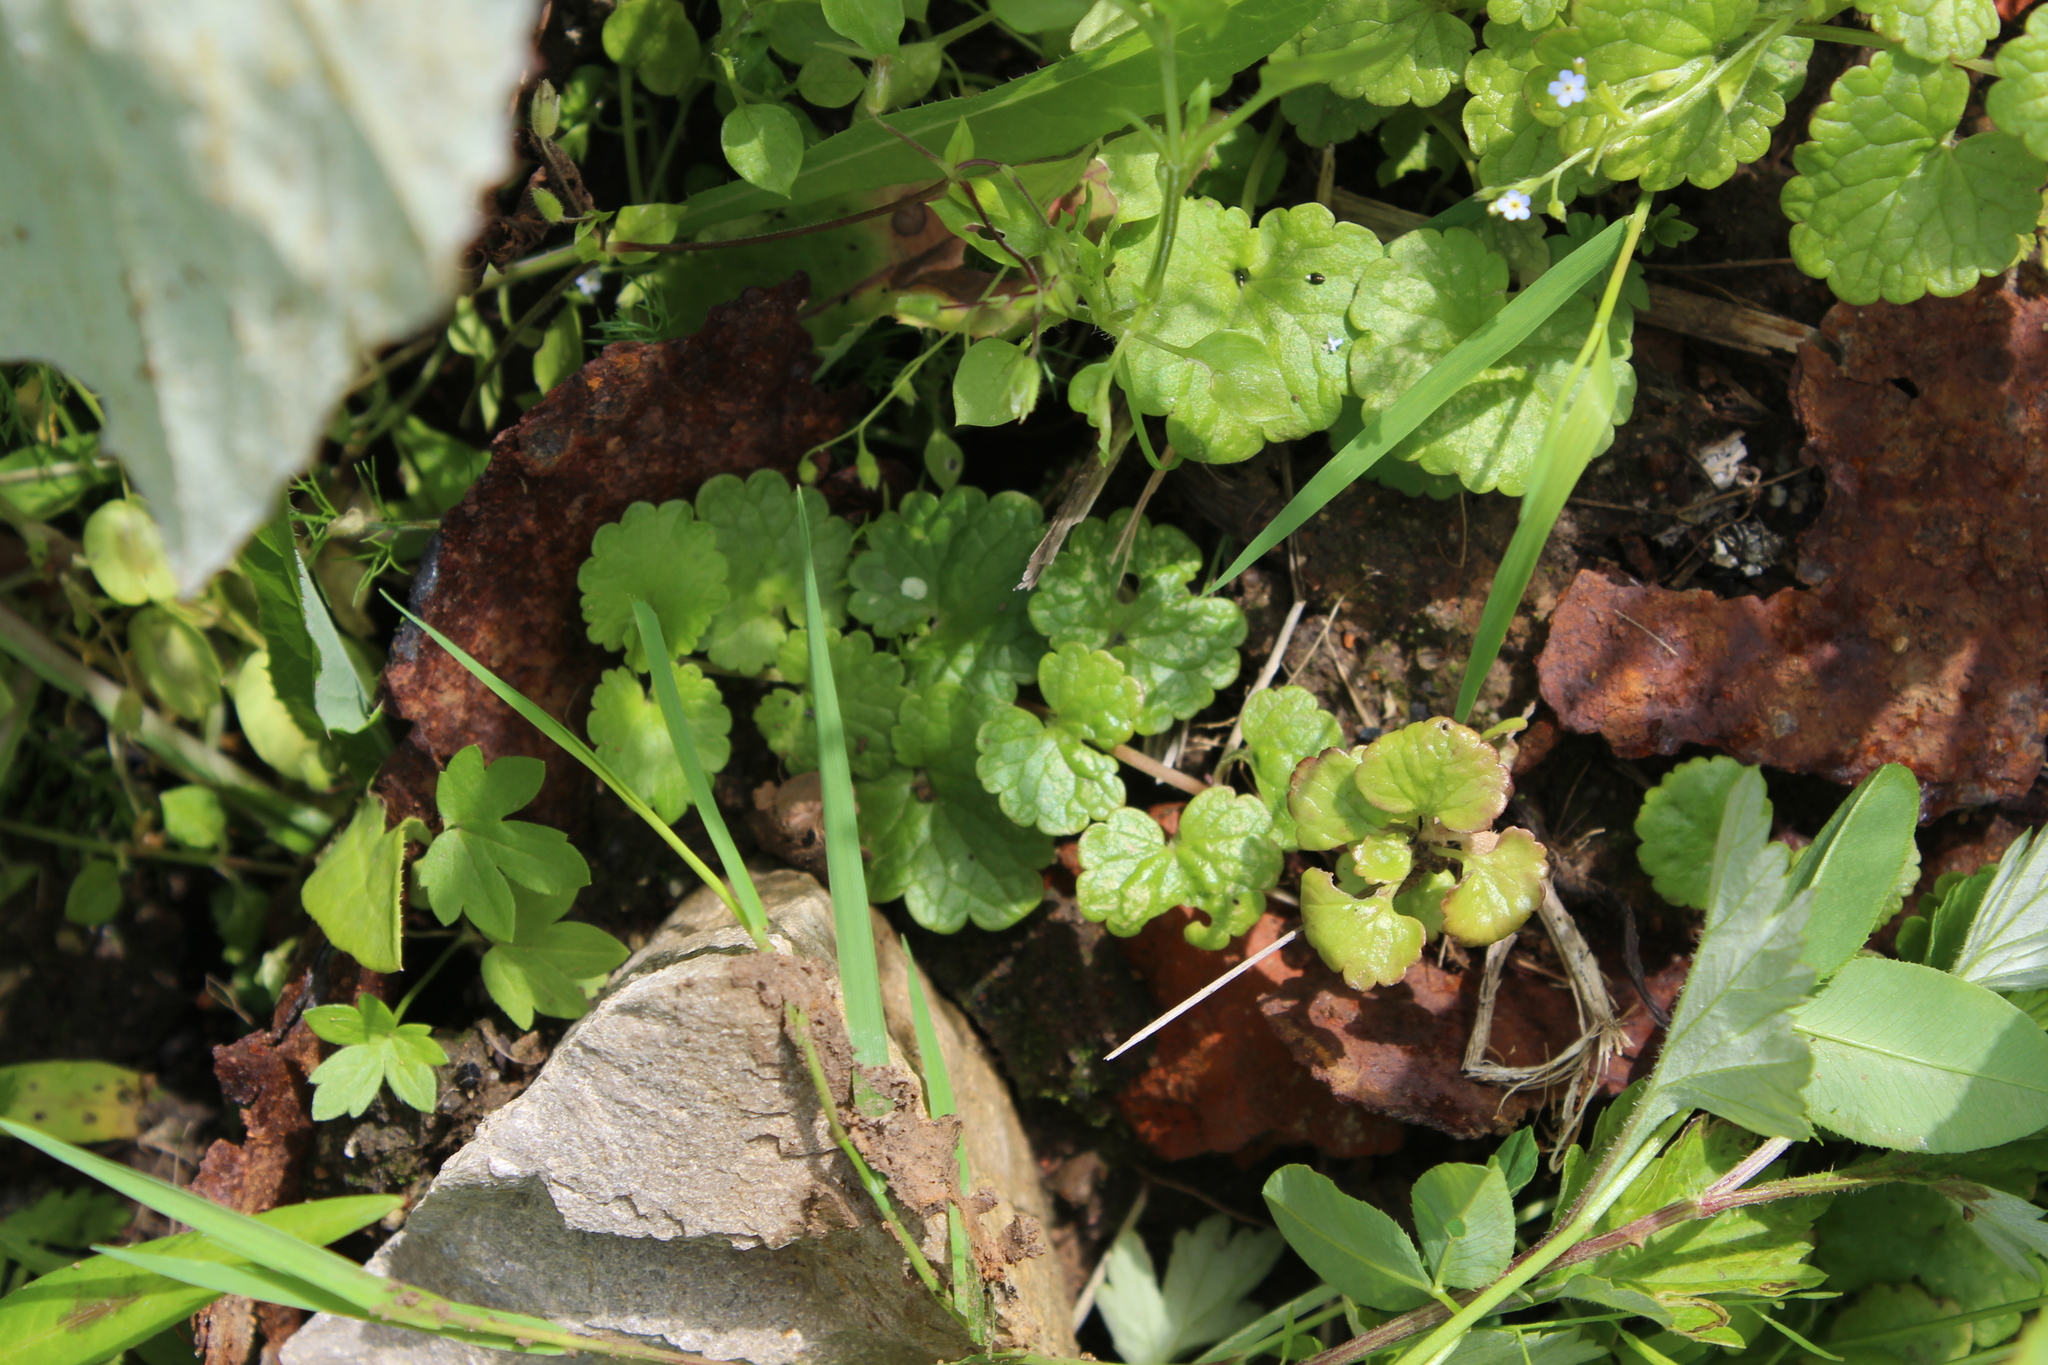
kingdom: Plantae
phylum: Tracheophyta
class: Magnoliopsida
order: Lamiales
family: Lamiaceae
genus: Glechoma
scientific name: Glechoma hederacea
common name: Ground ivy
